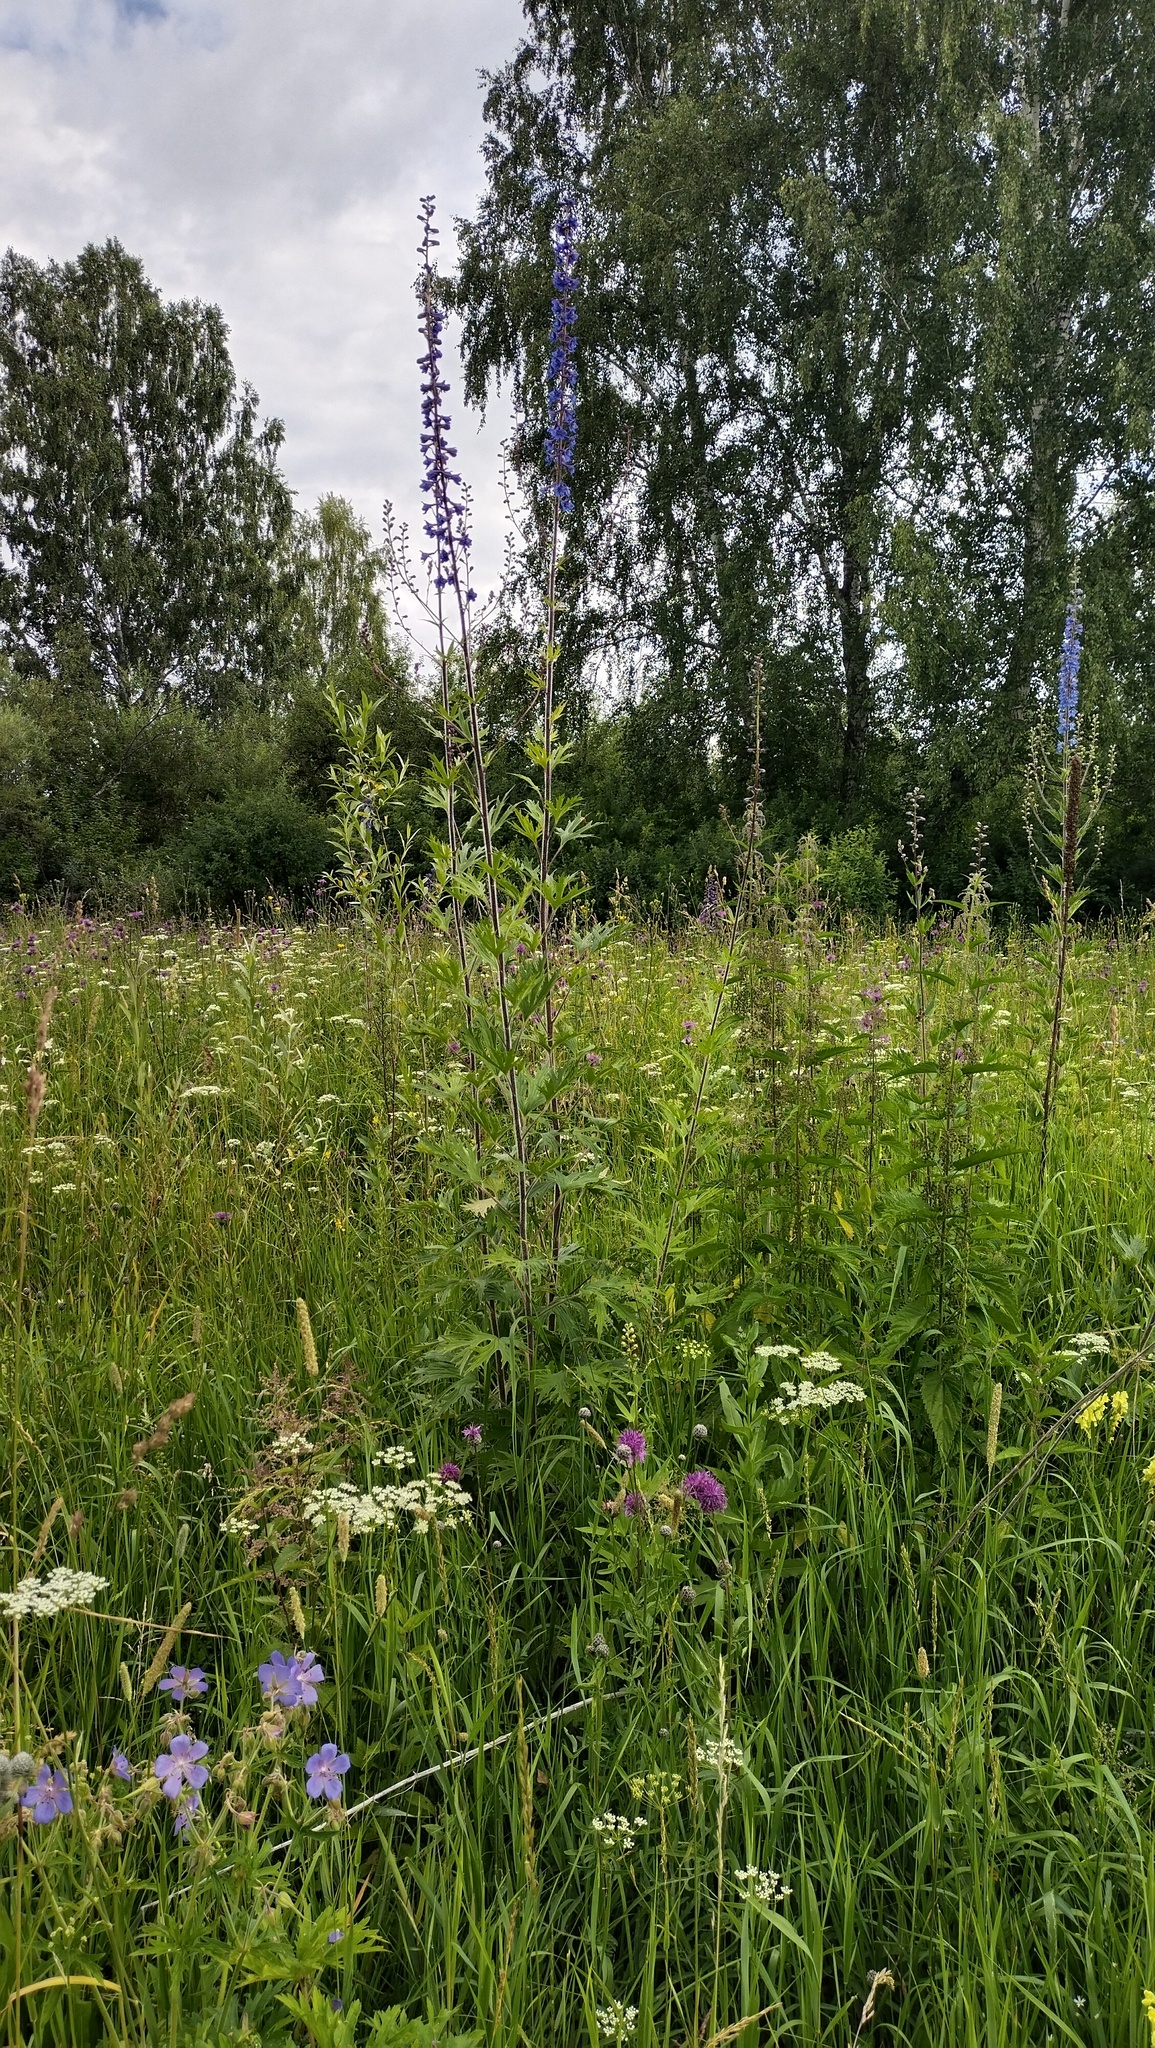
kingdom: Plantae
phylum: Tracheophyta
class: Magnoliopsida
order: Ranunculales
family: Ranunculaceae
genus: Delphinium
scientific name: Delphinium retropilosum
